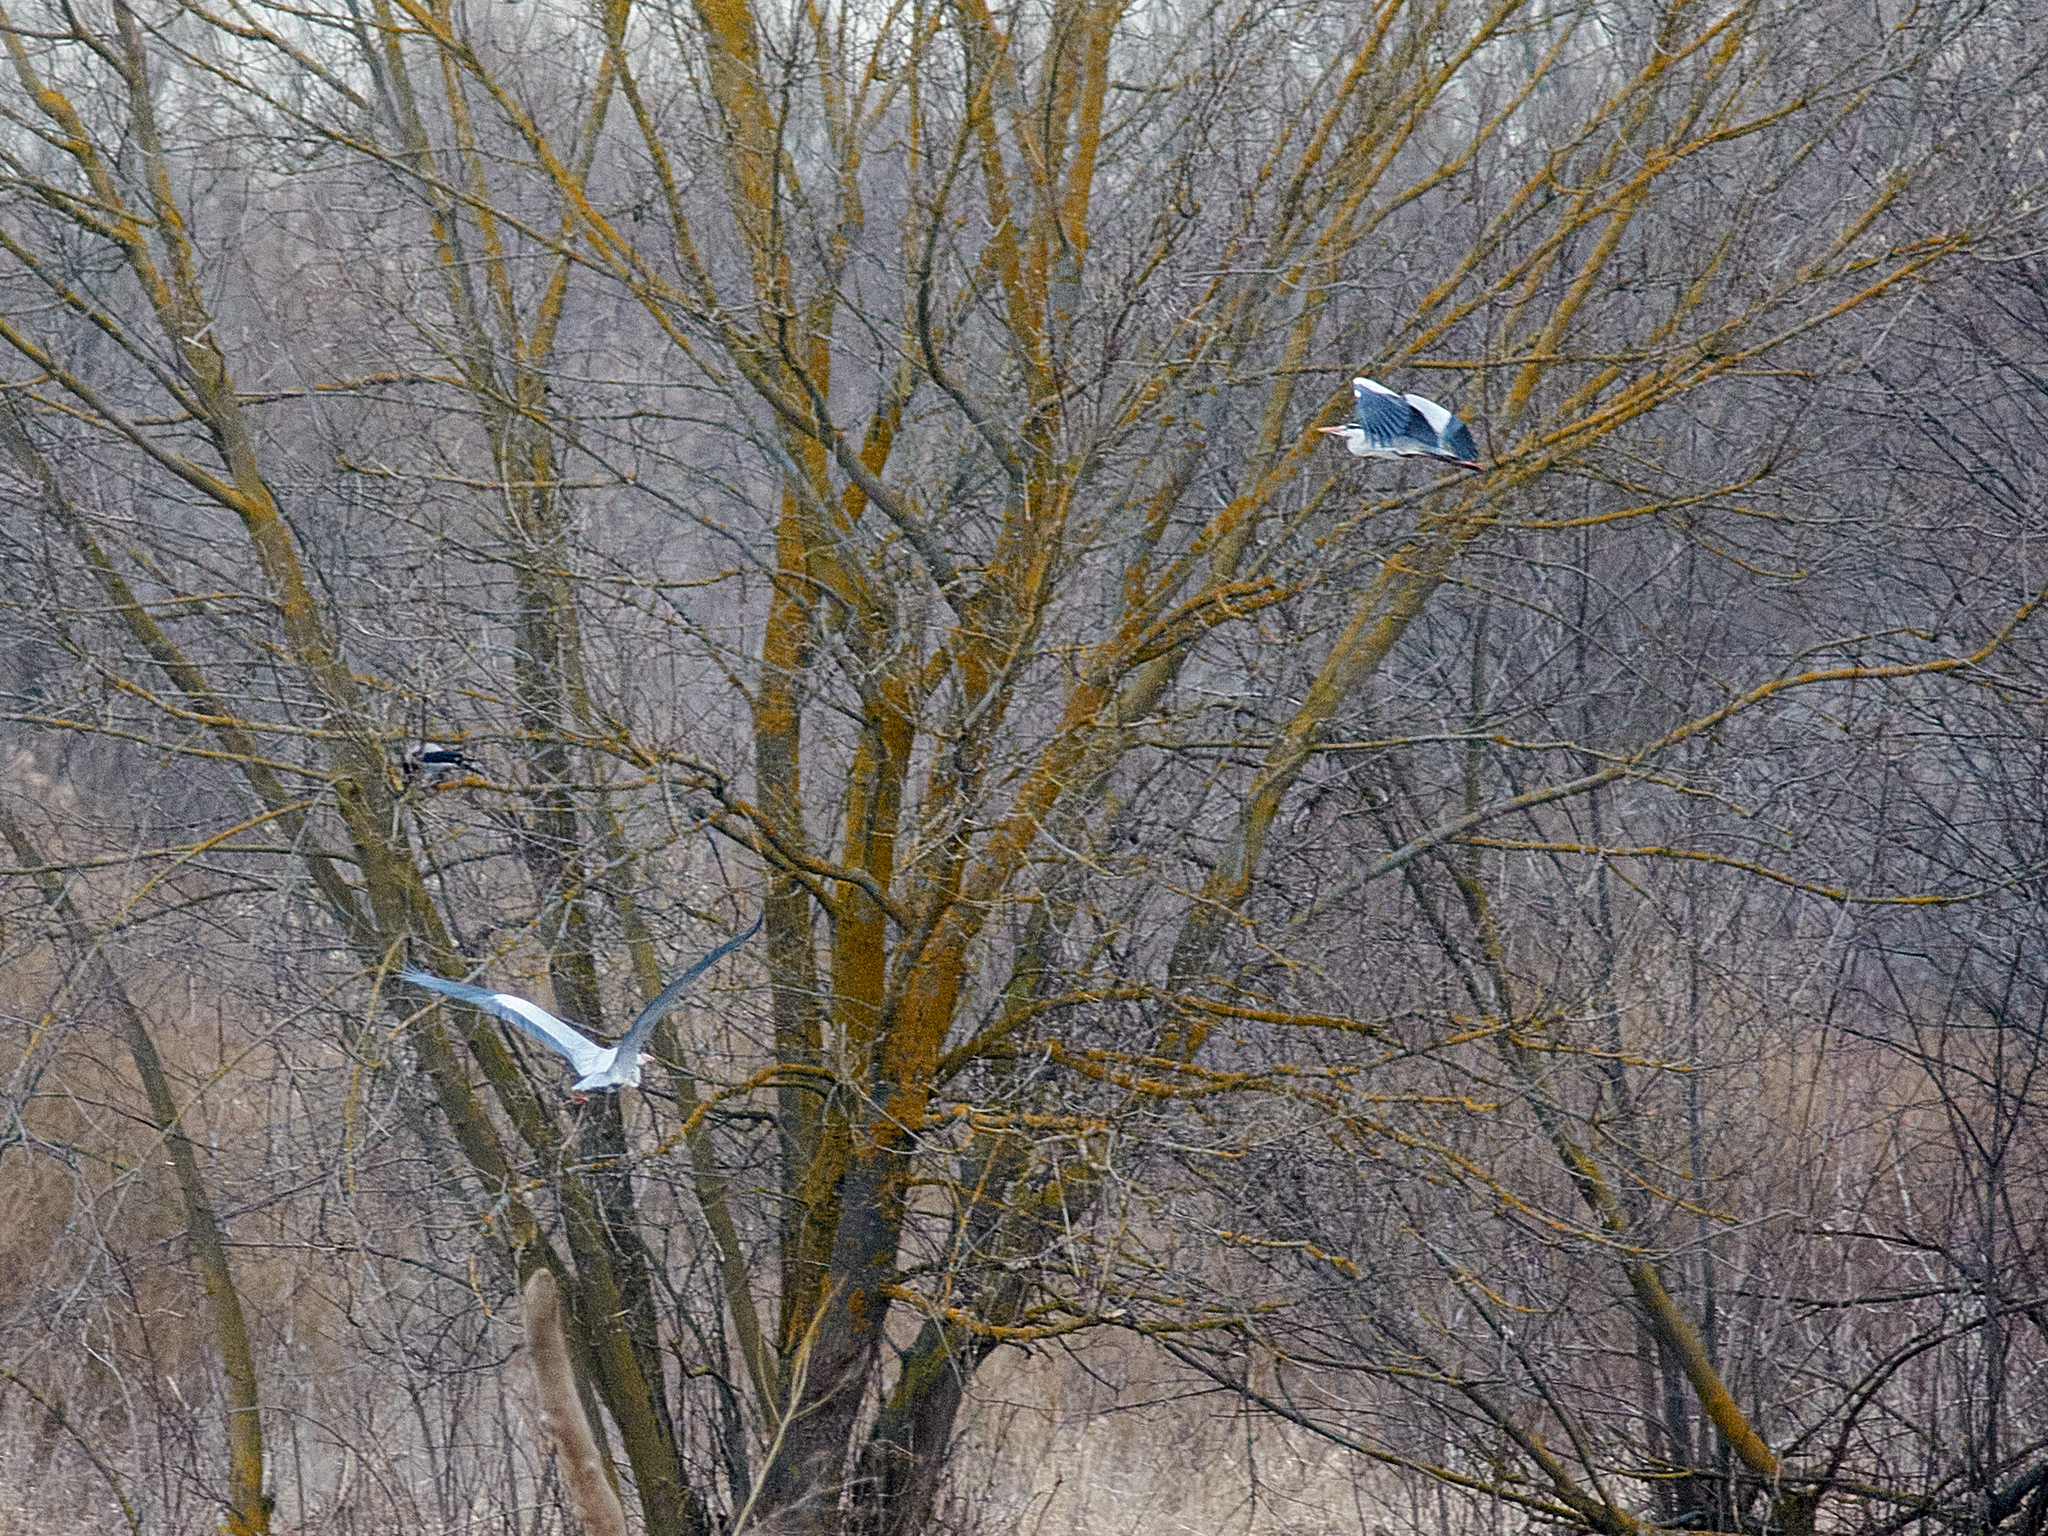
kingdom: Animalia
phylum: Chordata
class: Aves
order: Pelecaniformes
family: Ardeidae
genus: Ardea
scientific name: Ardea cinerea
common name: Grey heron
